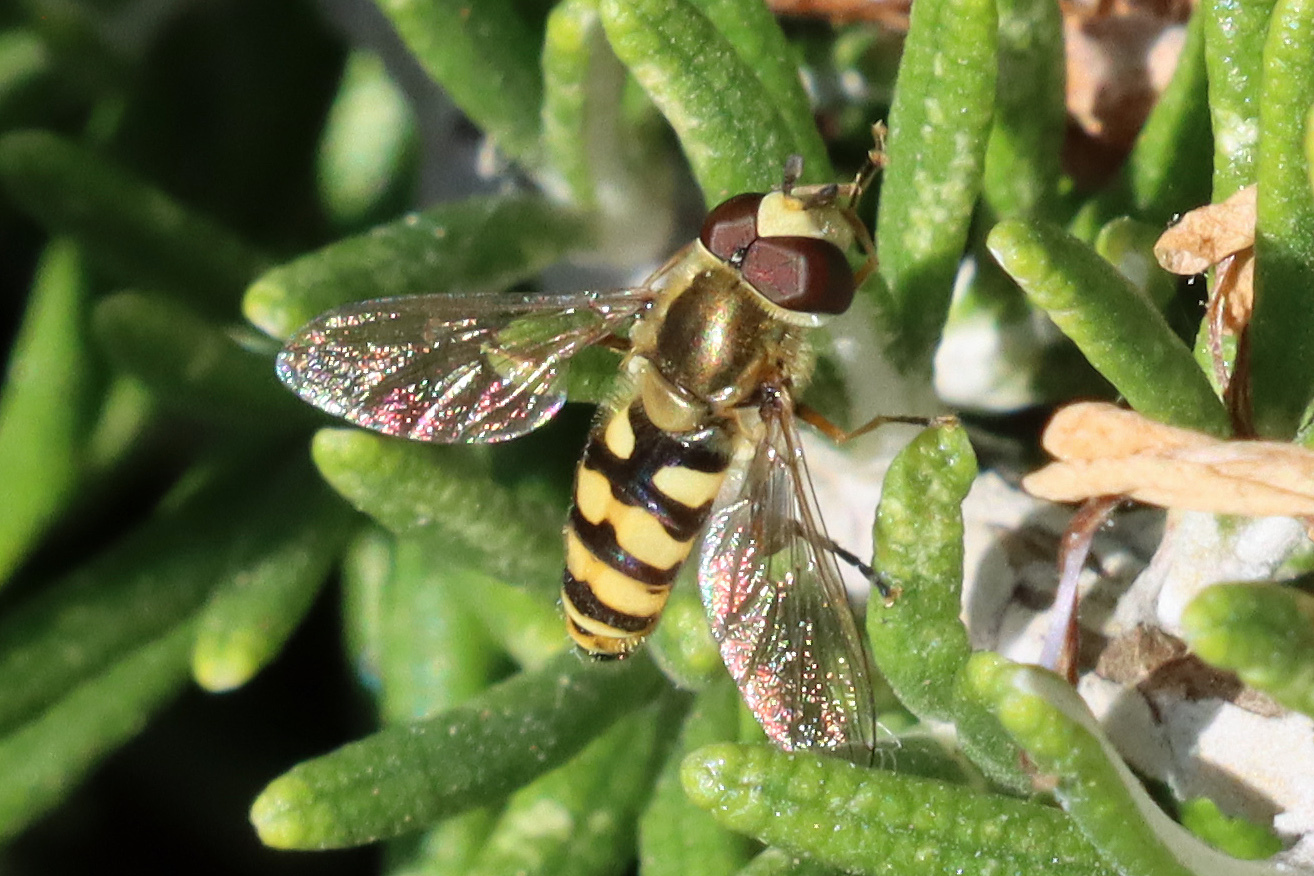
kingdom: Animalia
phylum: Arthropoda
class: Insecta
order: Diptera
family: Syrphidae
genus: Eupeodes
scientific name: Eupeodes corollae
